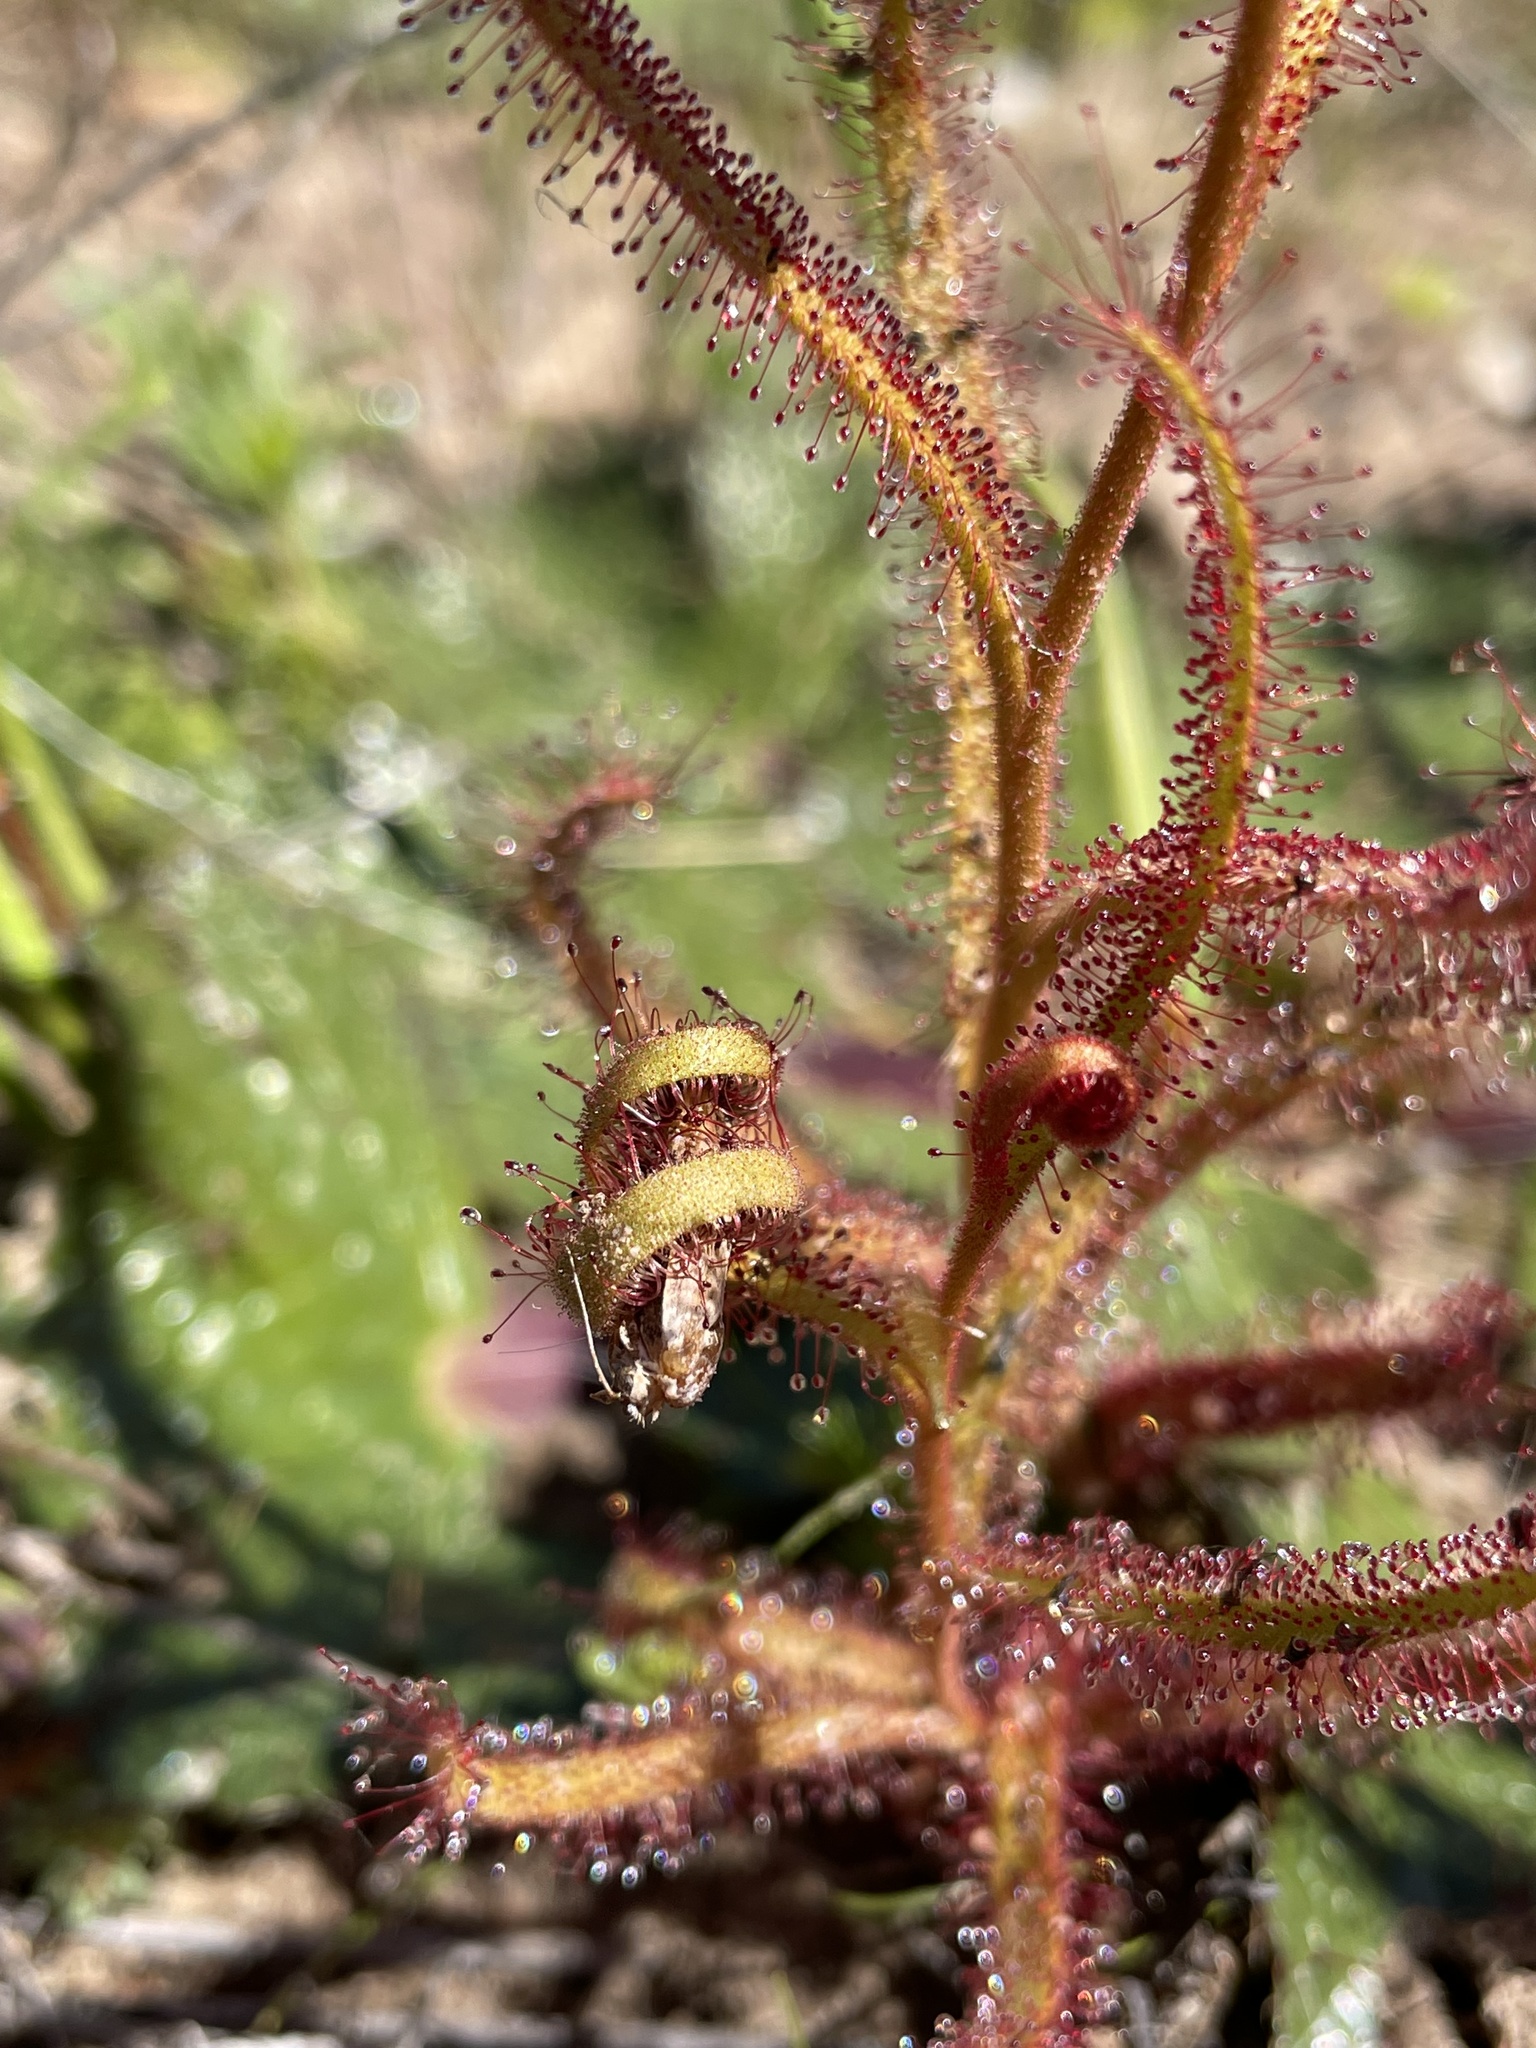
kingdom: Plantae
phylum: Tracheophyta
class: Magnoliopsida
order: Caryophyllales
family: Droseraceae
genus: Drosera
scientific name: Drosera cistiflora
